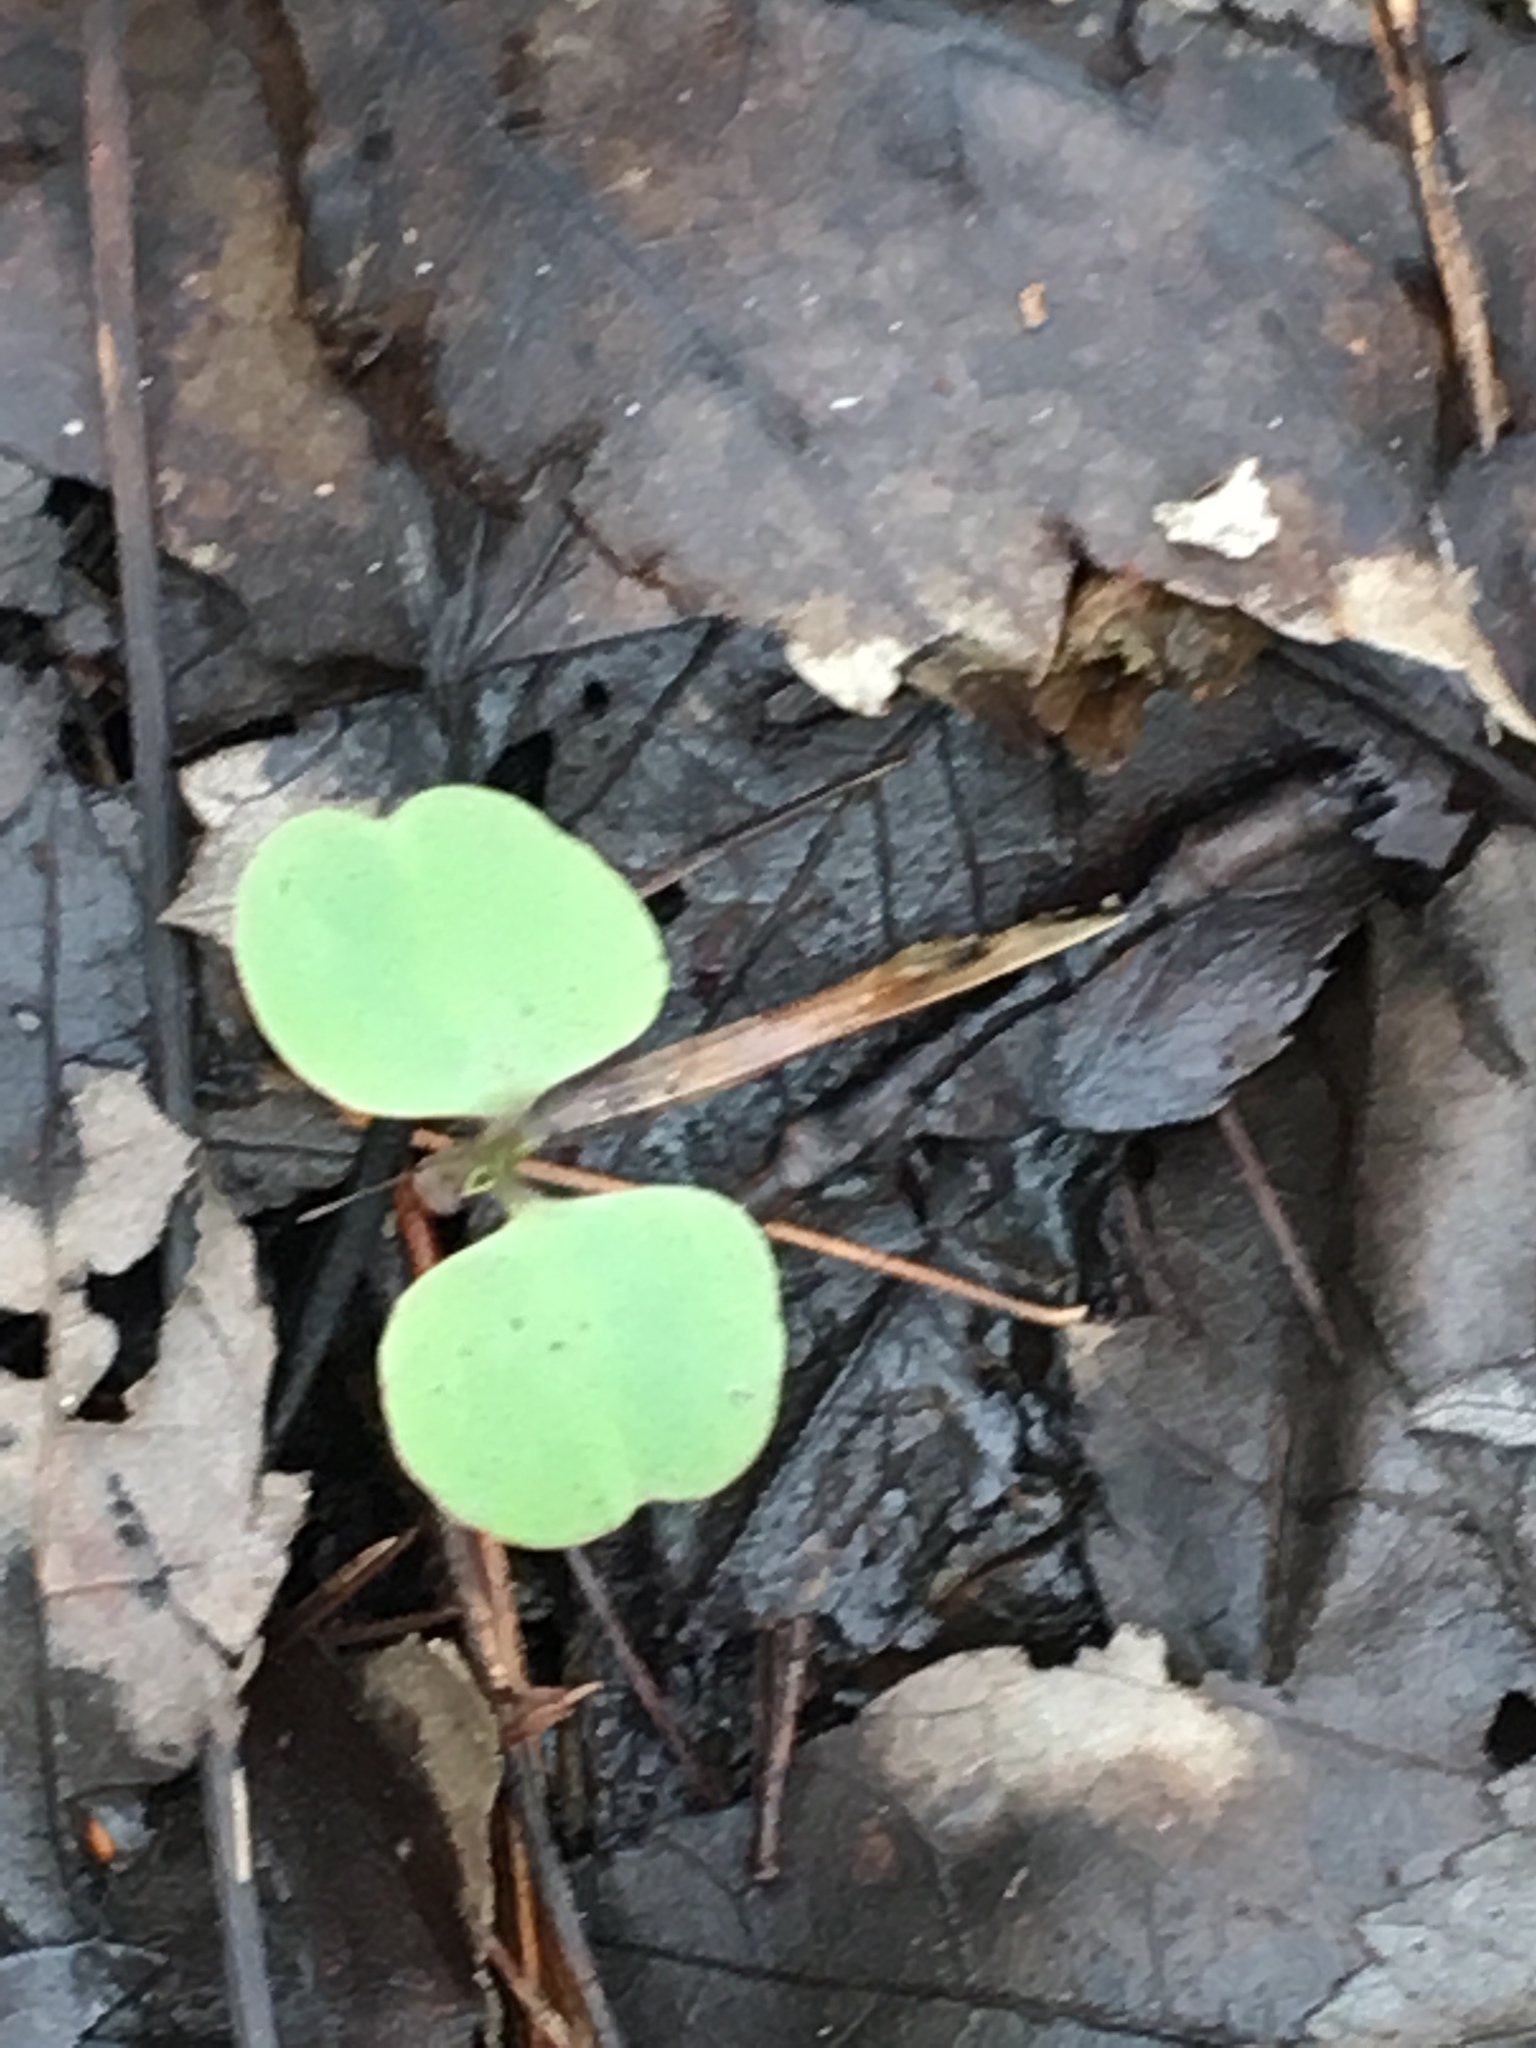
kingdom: Plantae
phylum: Tracheophyta
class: Magnoliopsida
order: Ericales
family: Balsaminaceae
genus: Impatiens
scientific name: Impatiens capensis
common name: Orange balsam
